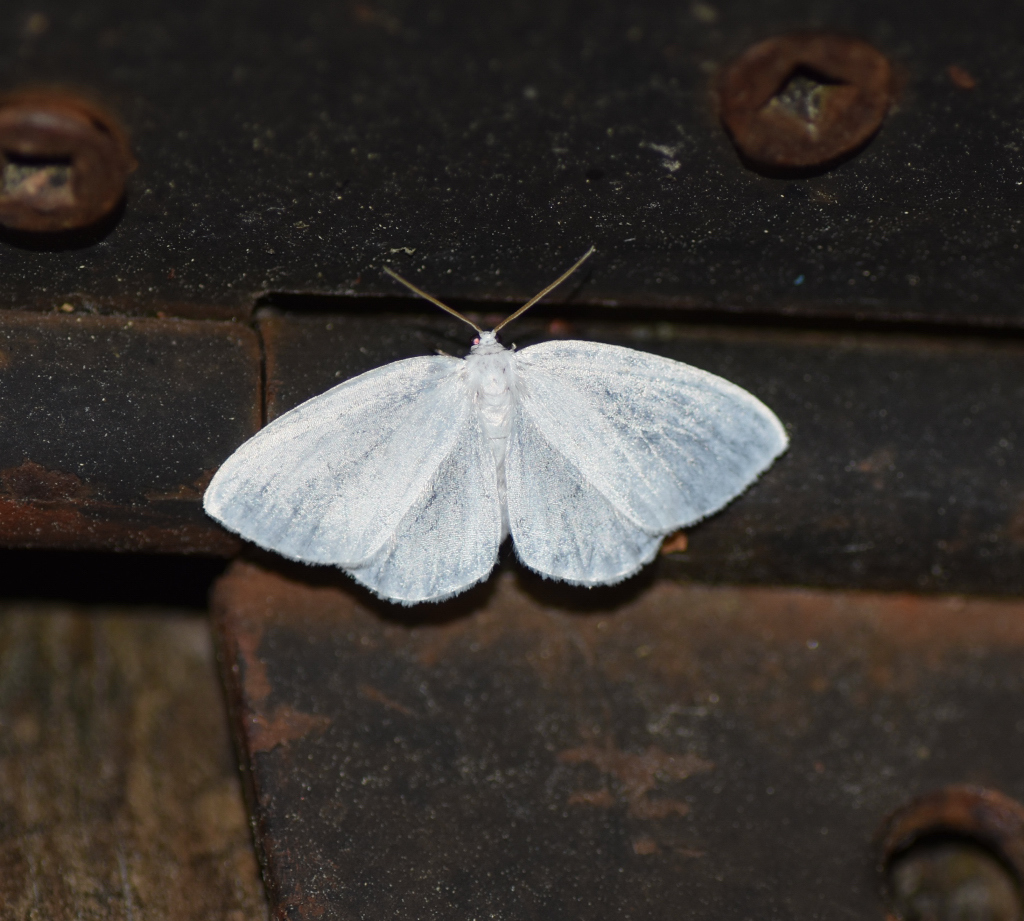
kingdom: Animalia
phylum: Arthropoda
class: Insecta
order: Lepidoptera
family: Geometridae
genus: Lomographa
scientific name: Lomographa vestaliata
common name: White spring moth
